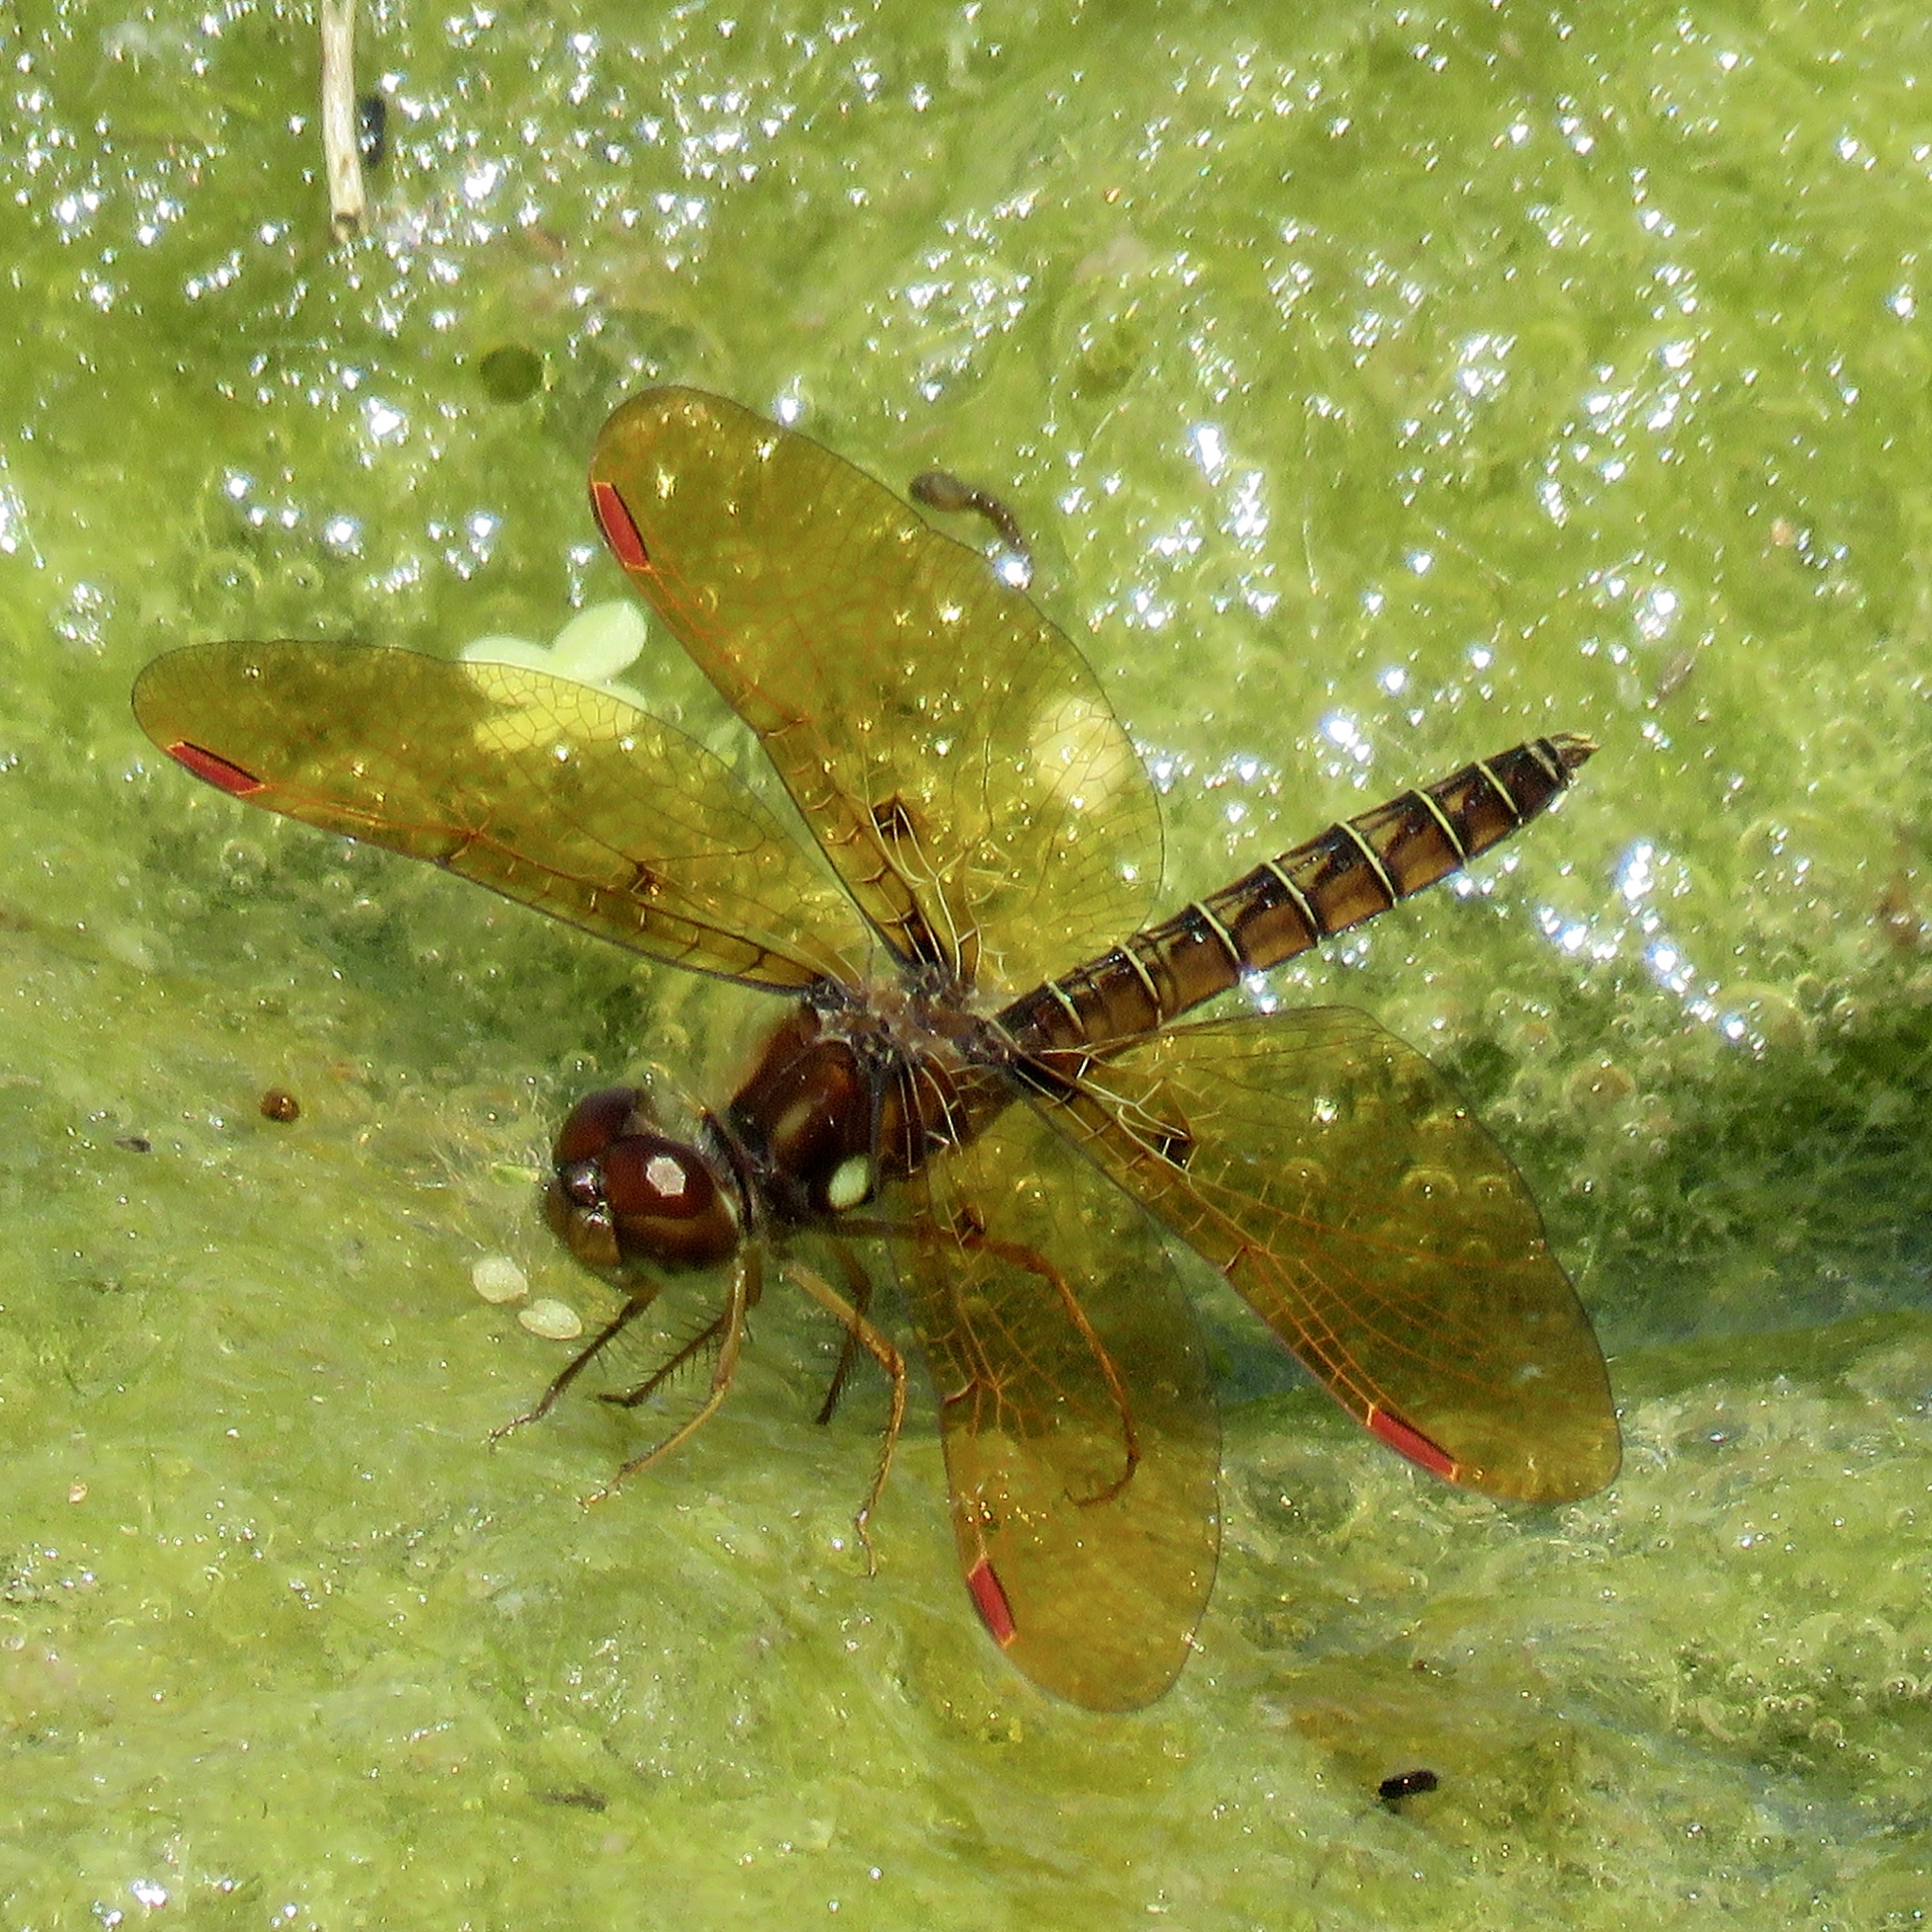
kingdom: Animalia
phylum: Arthropoda
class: Insecta
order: Odonata
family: Libellulidae
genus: Perithemis
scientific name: Perithemis tenera
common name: Eastern amberwing
